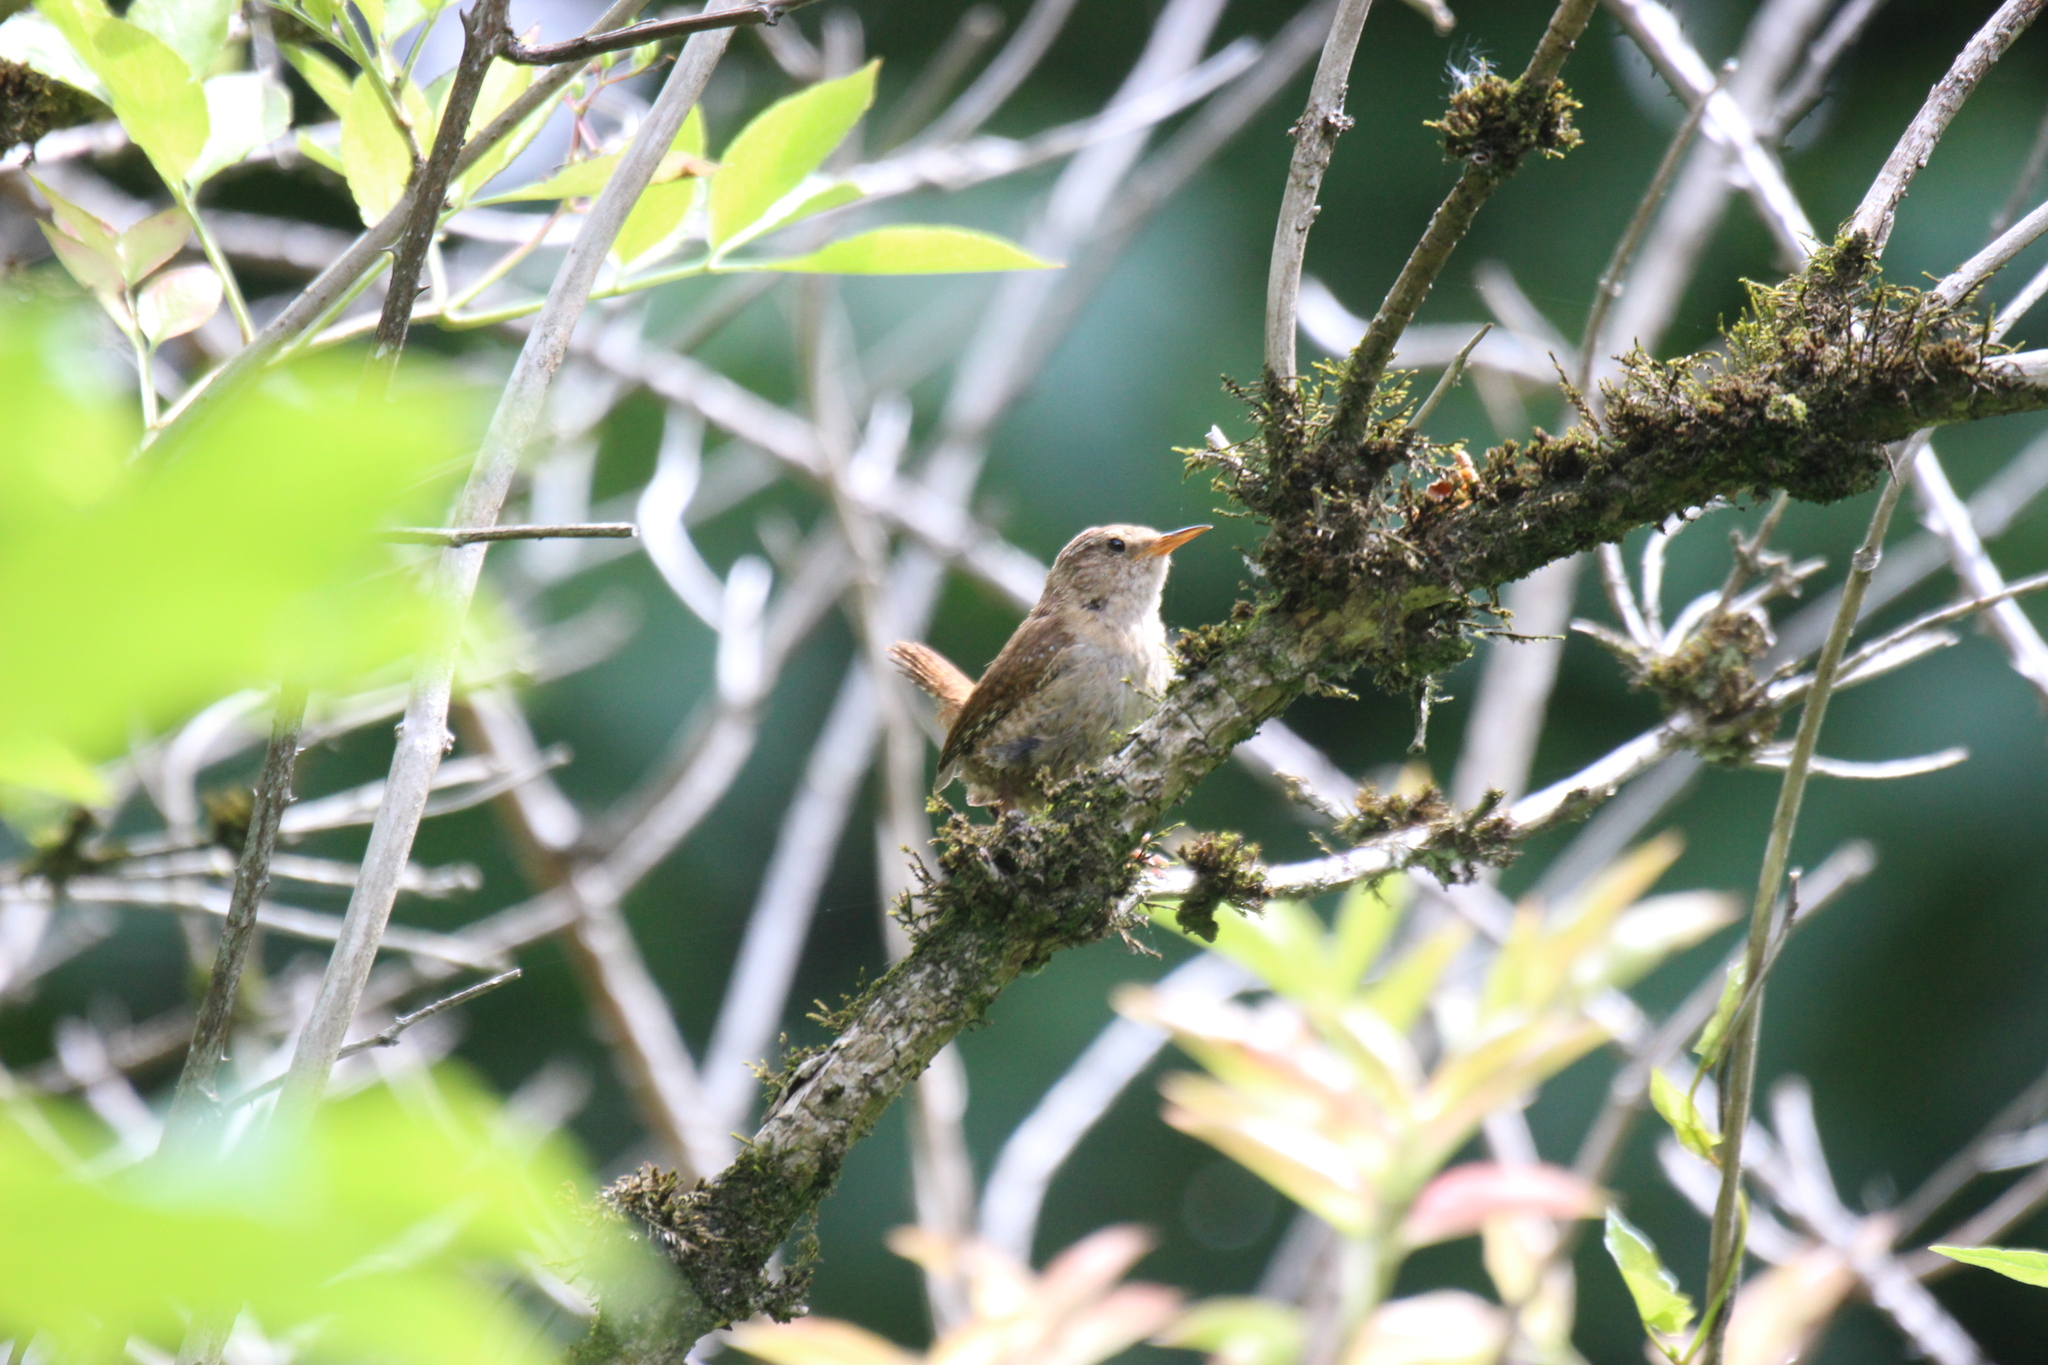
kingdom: Animalia
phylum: Chordata
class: Aves
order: Passeriformes
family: Troglodytidae
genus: Troglodytes
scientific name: Troglodytes troglodytes
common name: Eurasian wren
